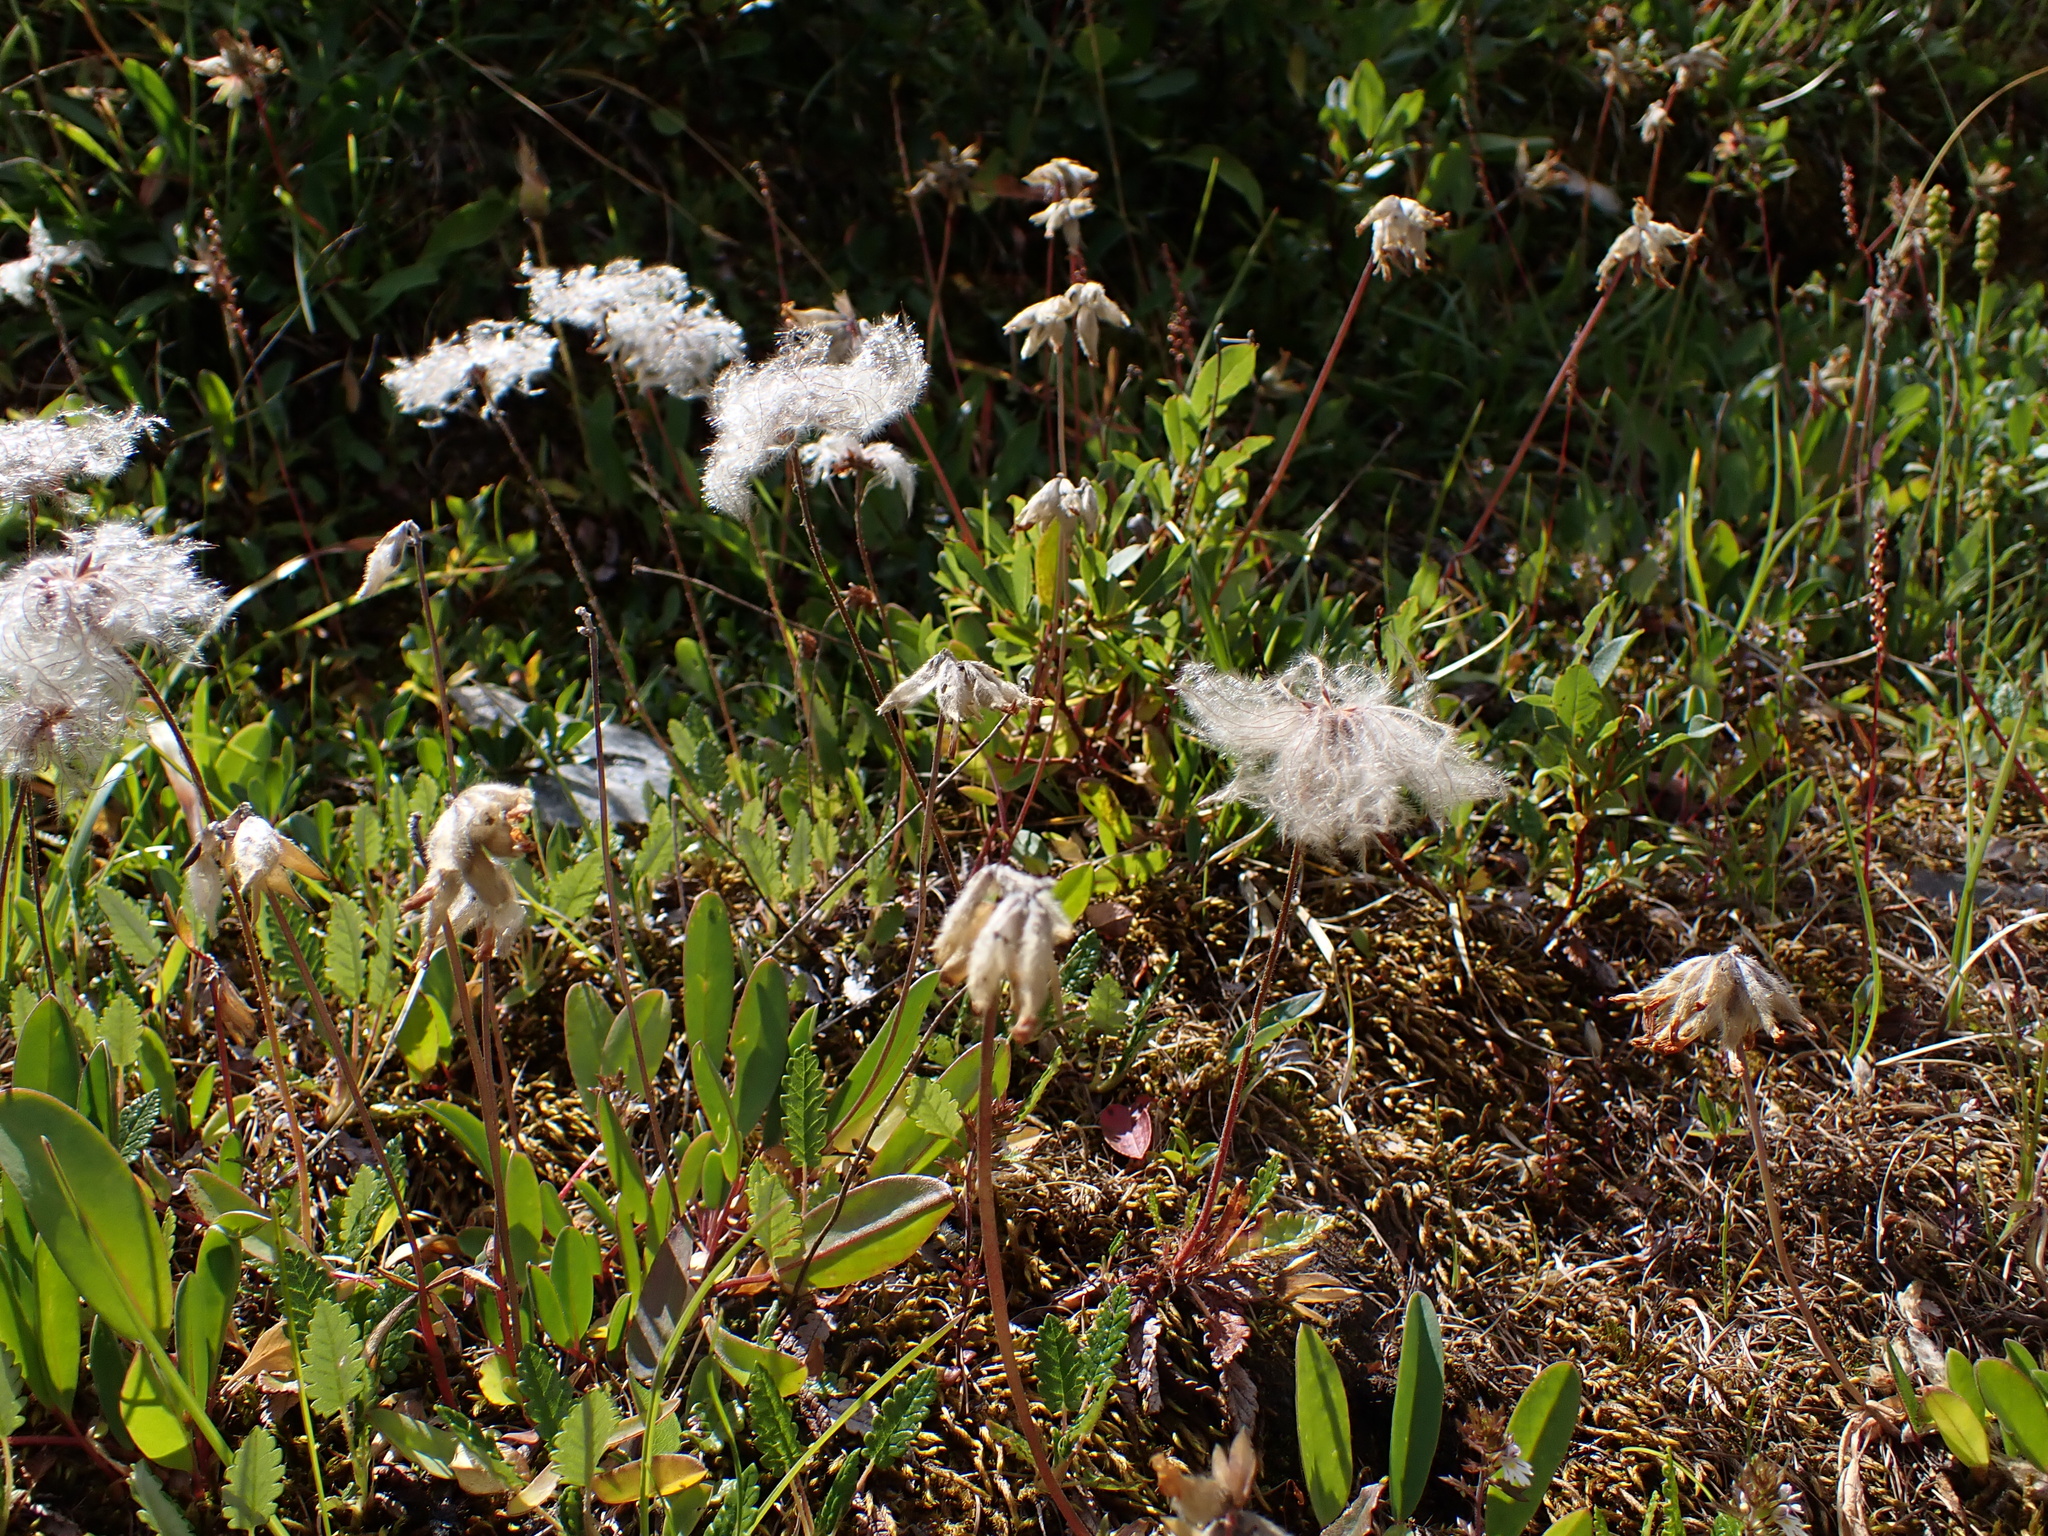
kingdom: Plantae
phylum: Tracheophyta
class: Magnoliopsida
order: Rosales
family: Rosaceae
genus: Dryas
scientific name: Dryas octopetala
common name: Eight-petal mountain-avens
